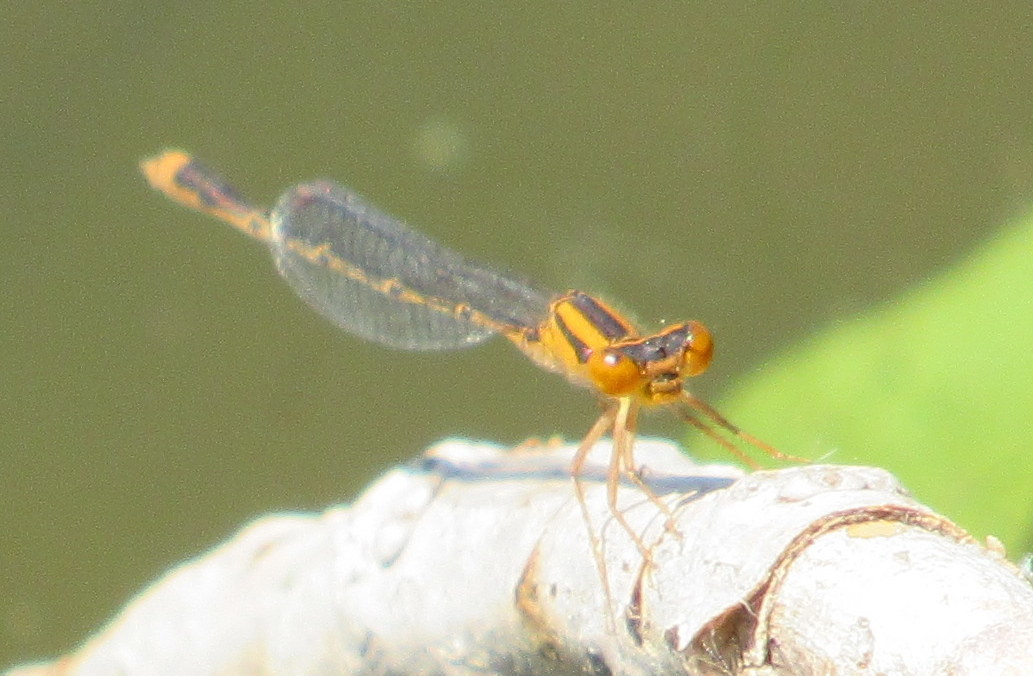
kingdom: Animalia
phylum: Arthropoda
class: Insecta
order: Odonata
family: Coenagrionidae
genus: Enallagma
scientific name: Enallagma signatum
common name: Orange bluet
